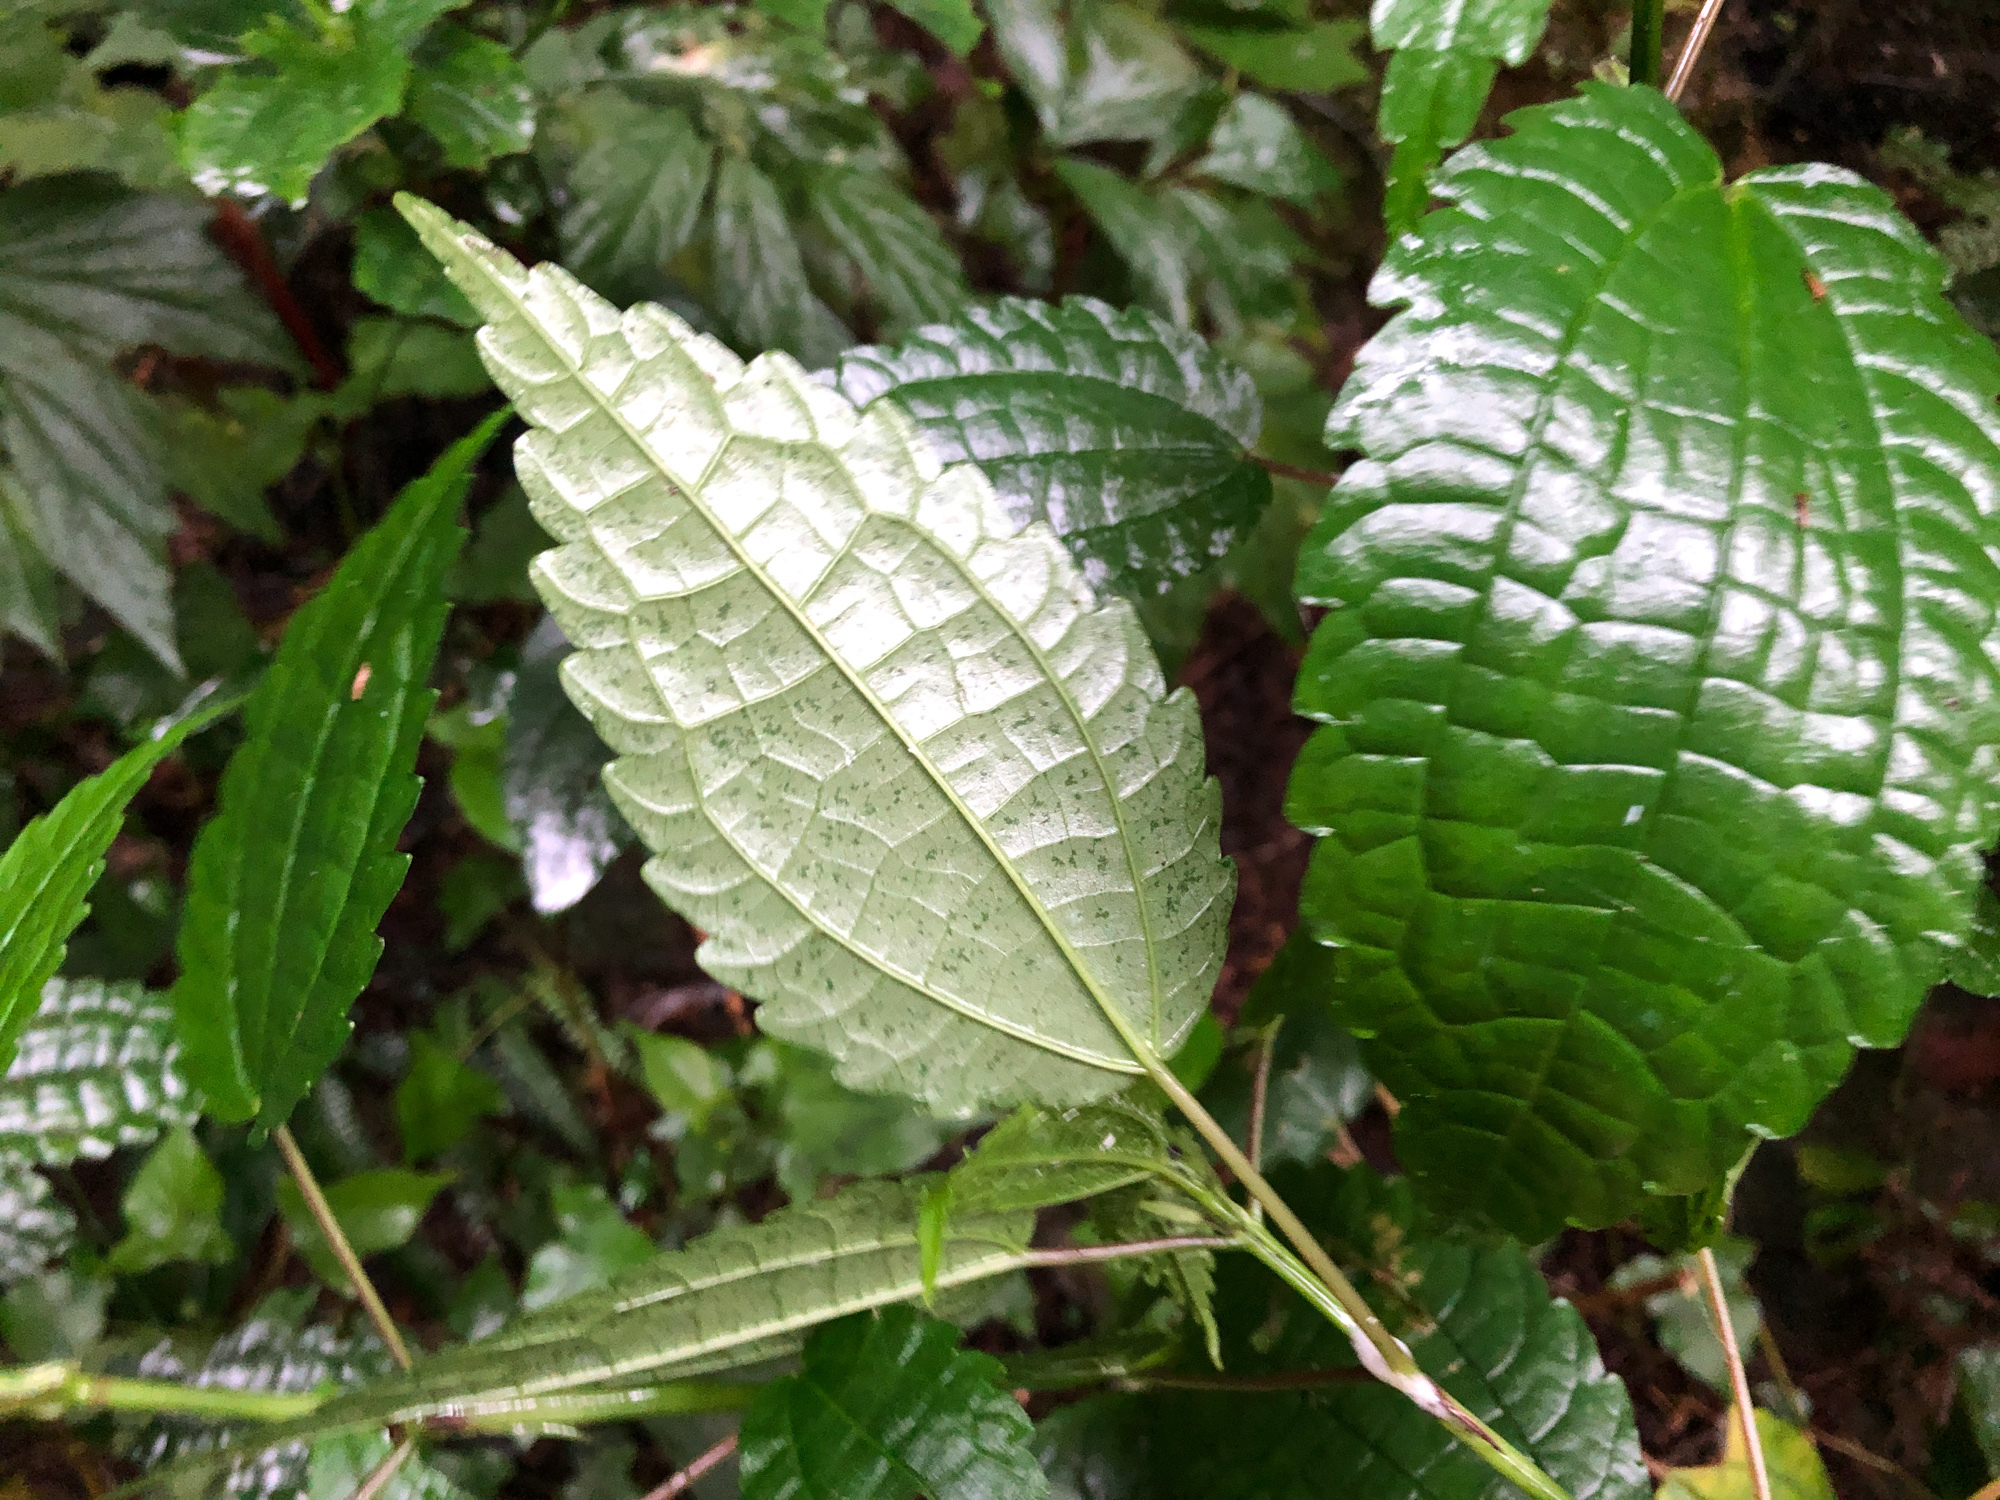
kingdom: Plantae
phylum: Tracheophyta
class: Magnoliopsida
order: Rosales
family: Urticaceae
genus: Pilea
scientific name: Pilea angulata
